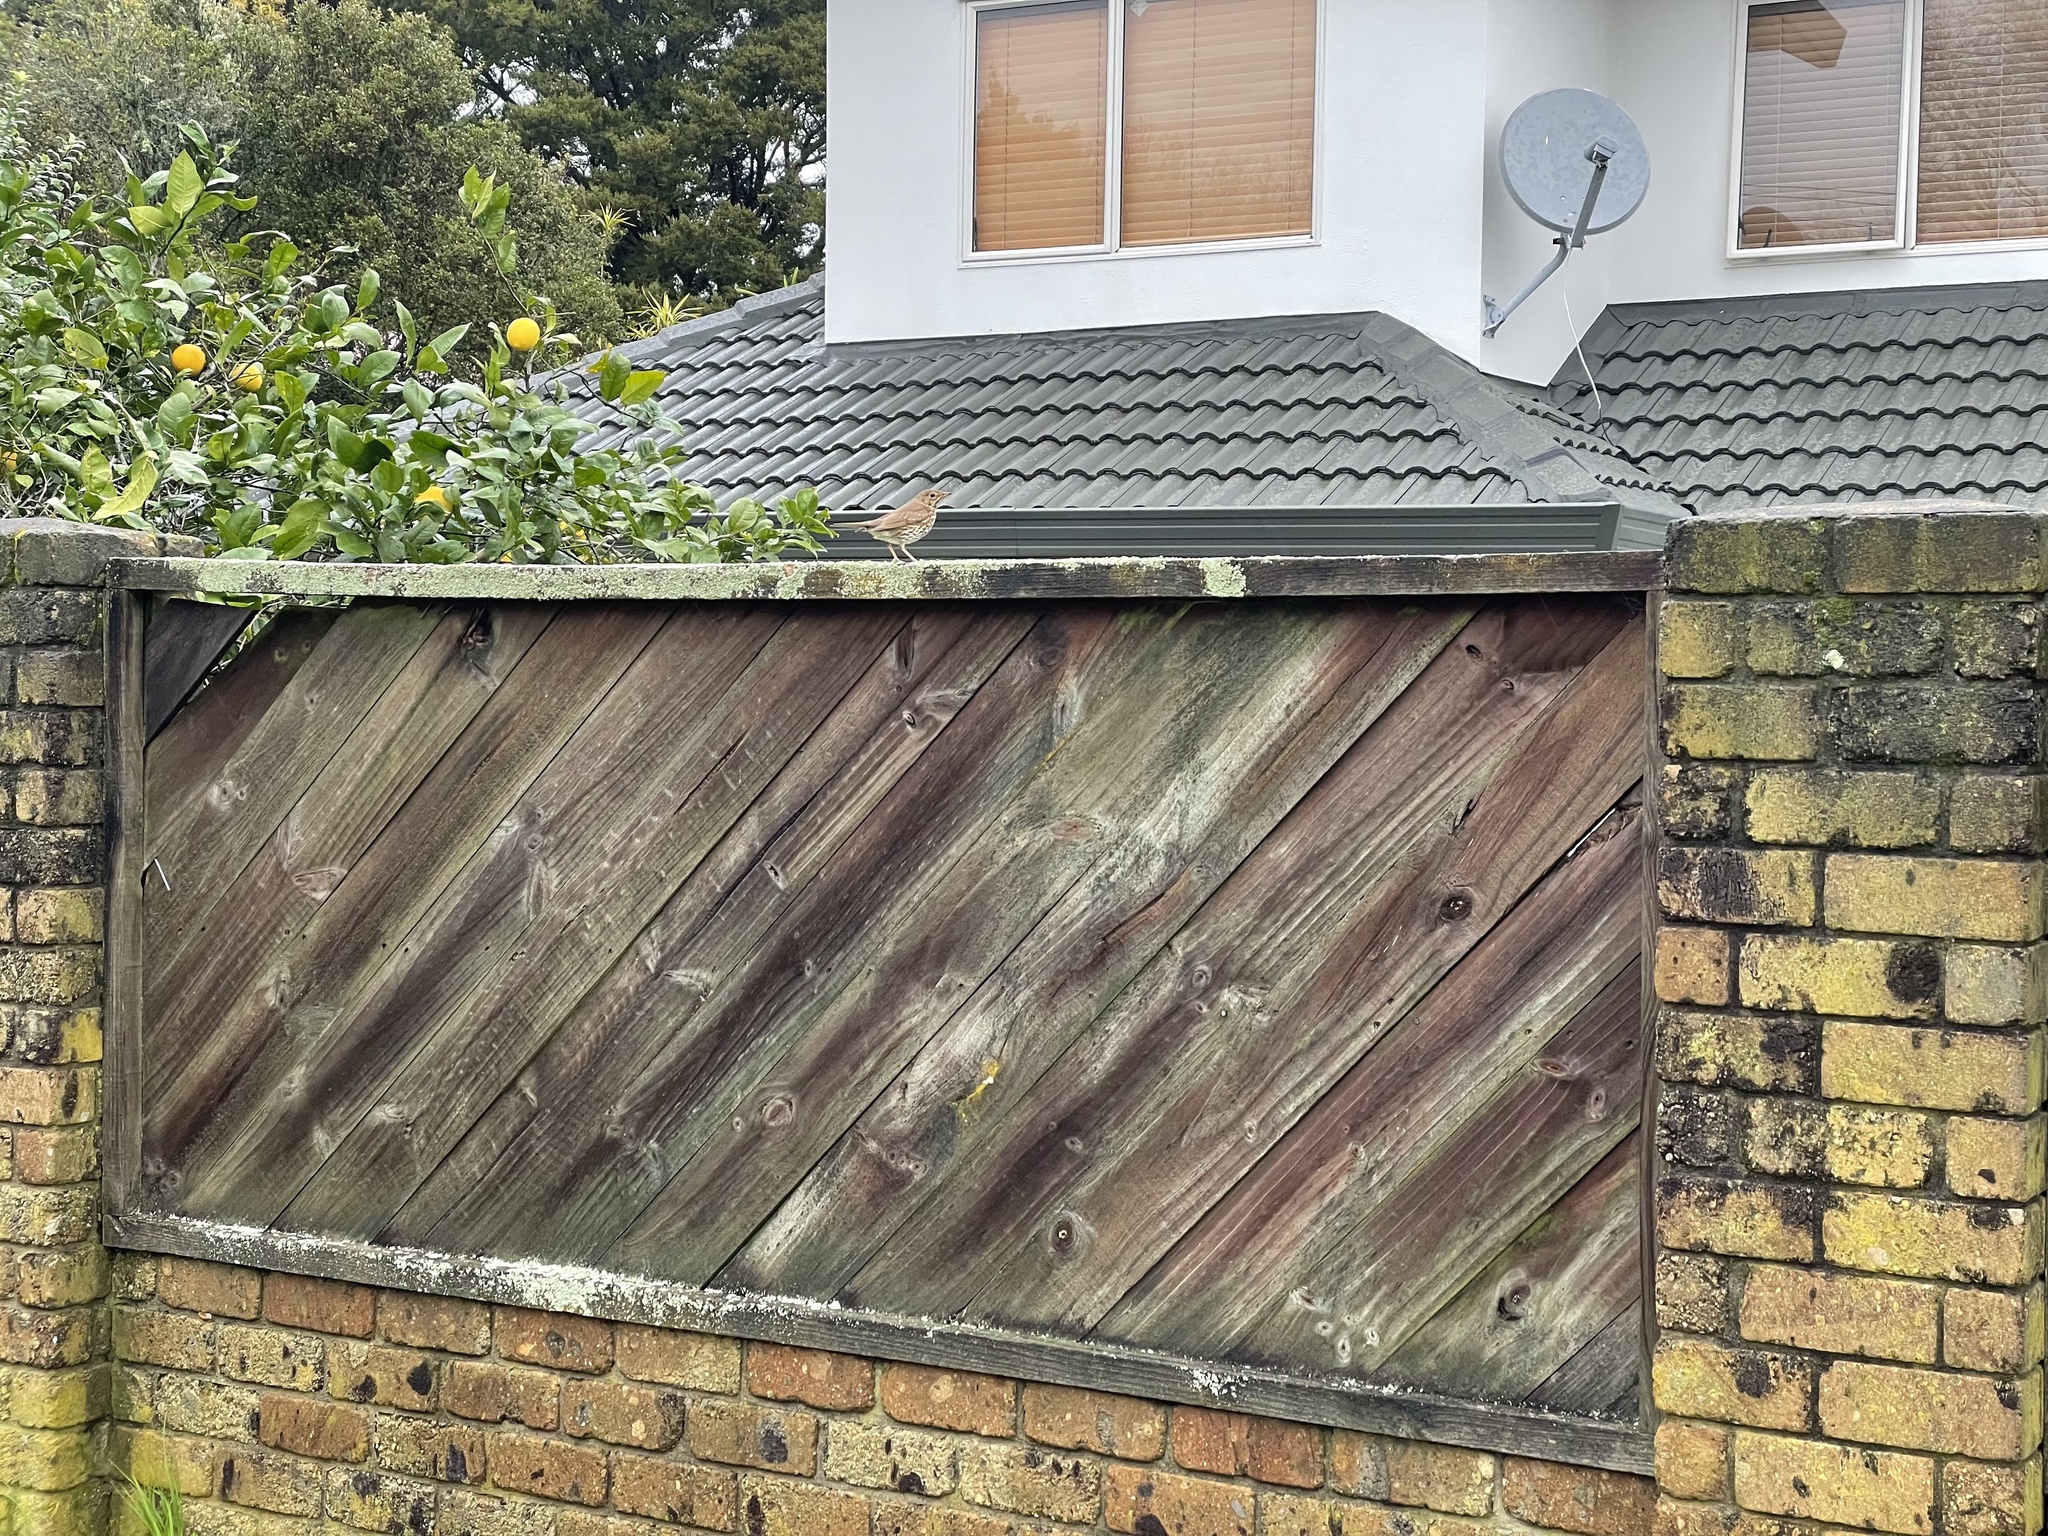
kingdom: Animalia
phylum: Chordata
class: Aves
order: Passeriformes
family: Turdidae
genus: Turdus
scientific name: Turdus philomelos
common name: Song thrush
